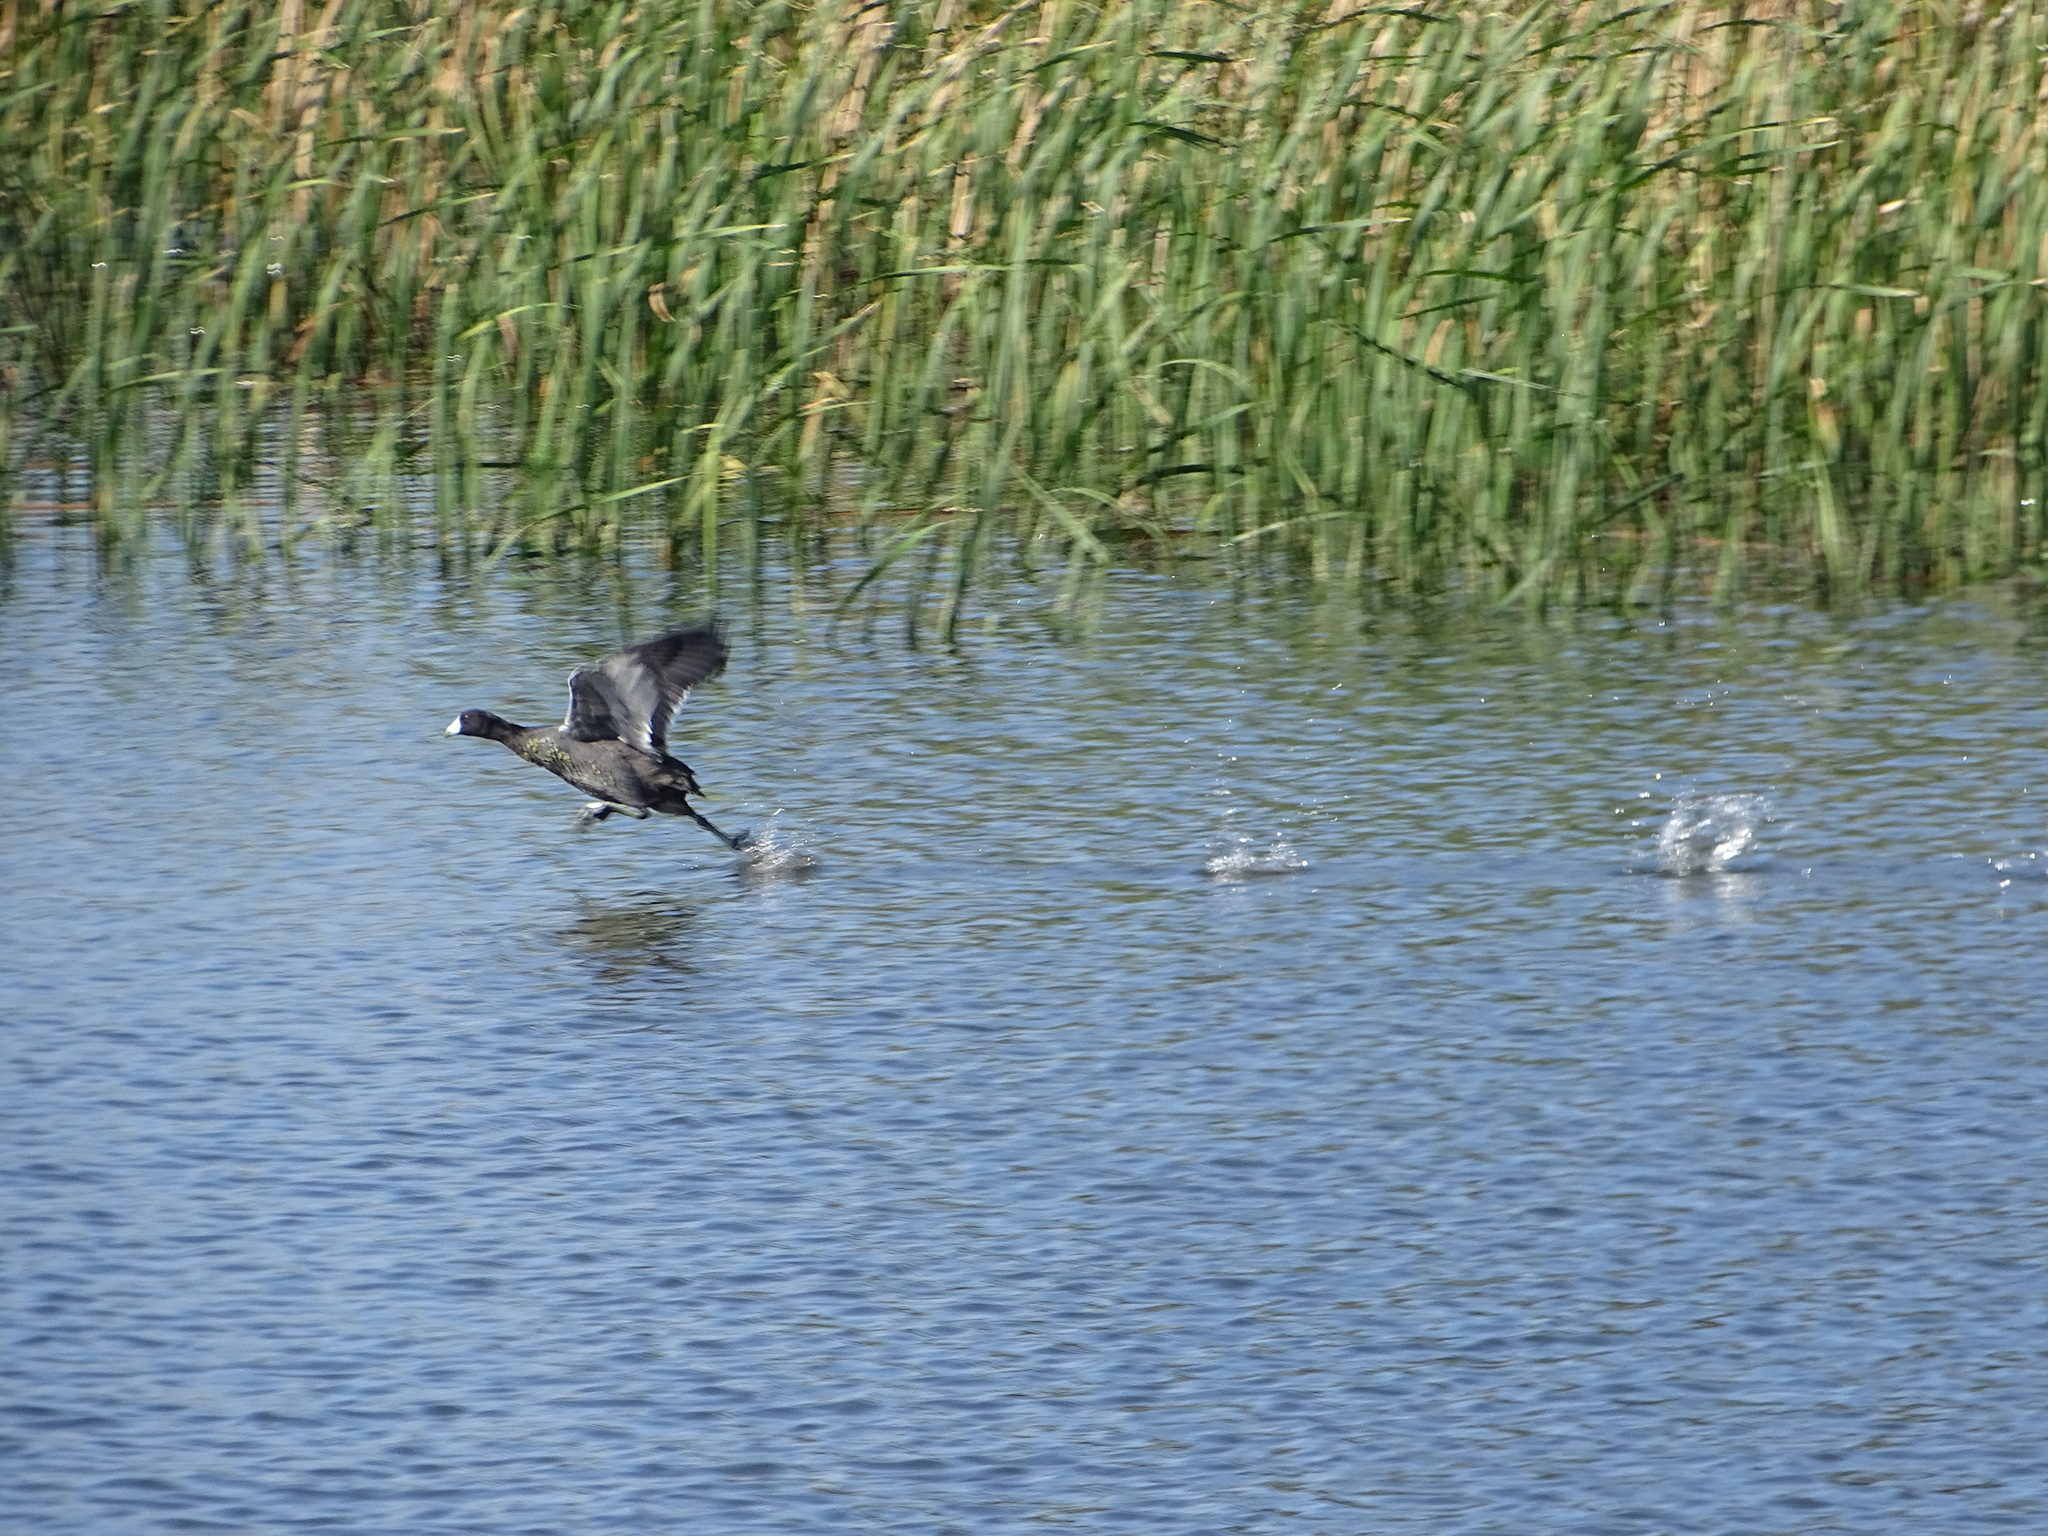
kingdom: Animalia
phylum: Chordata
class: Aves
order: Gruiformes
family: Rallidae
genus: Fulica
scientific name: Fulica americana
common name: American coot
